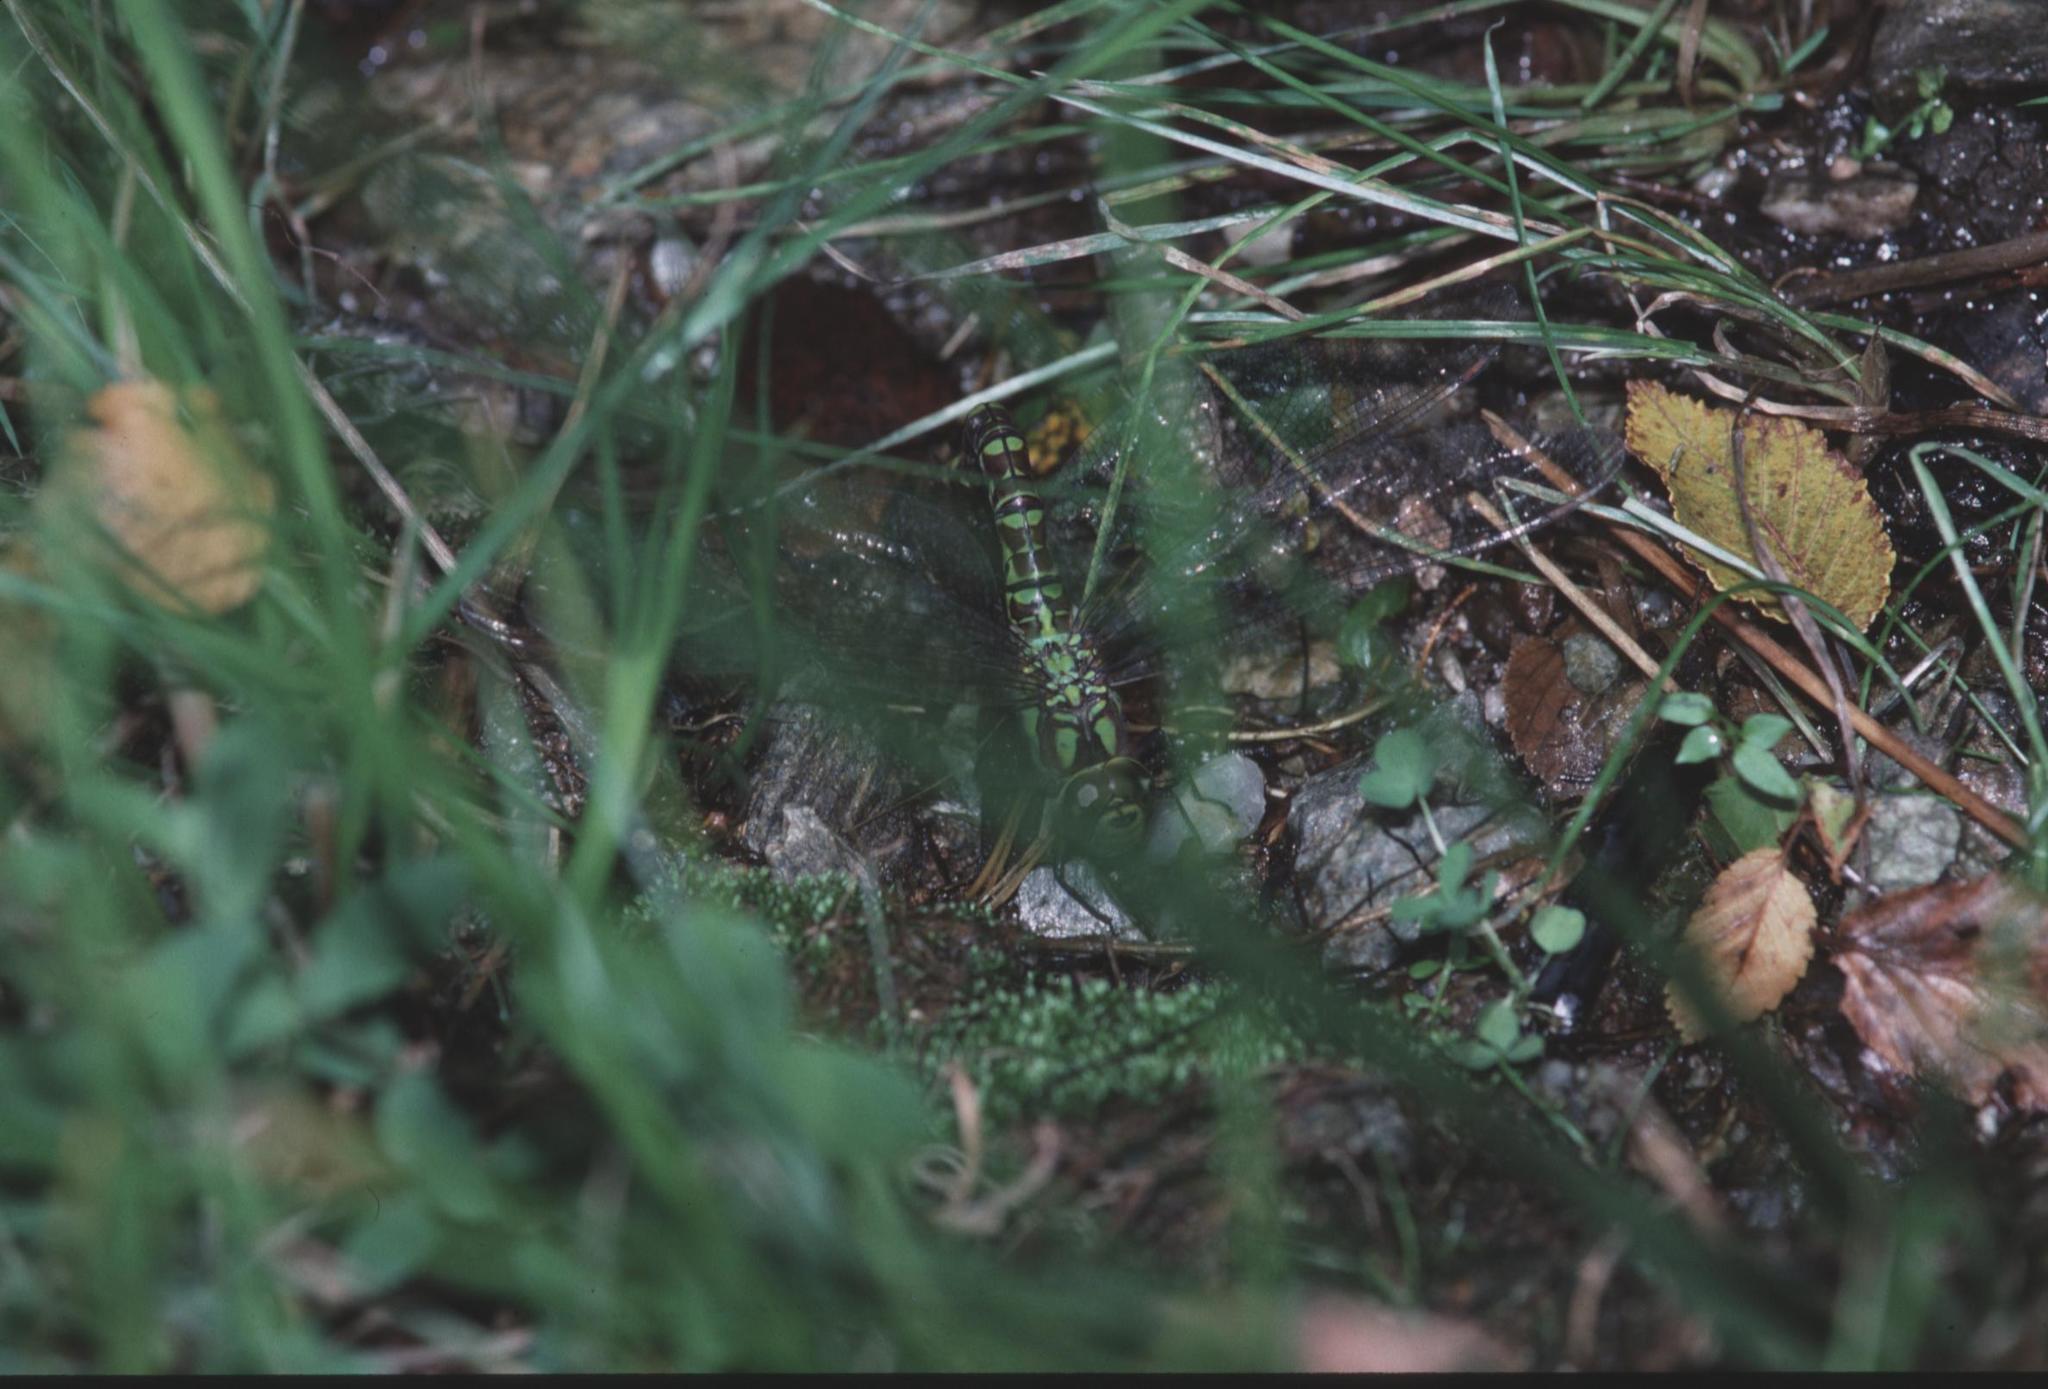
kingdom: Animalia
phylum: Arthropoda
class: Insecta
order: Odonata
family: Aeshnidae
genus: Aeshna
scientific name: Aeshna cyanea
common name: Southern hawker
